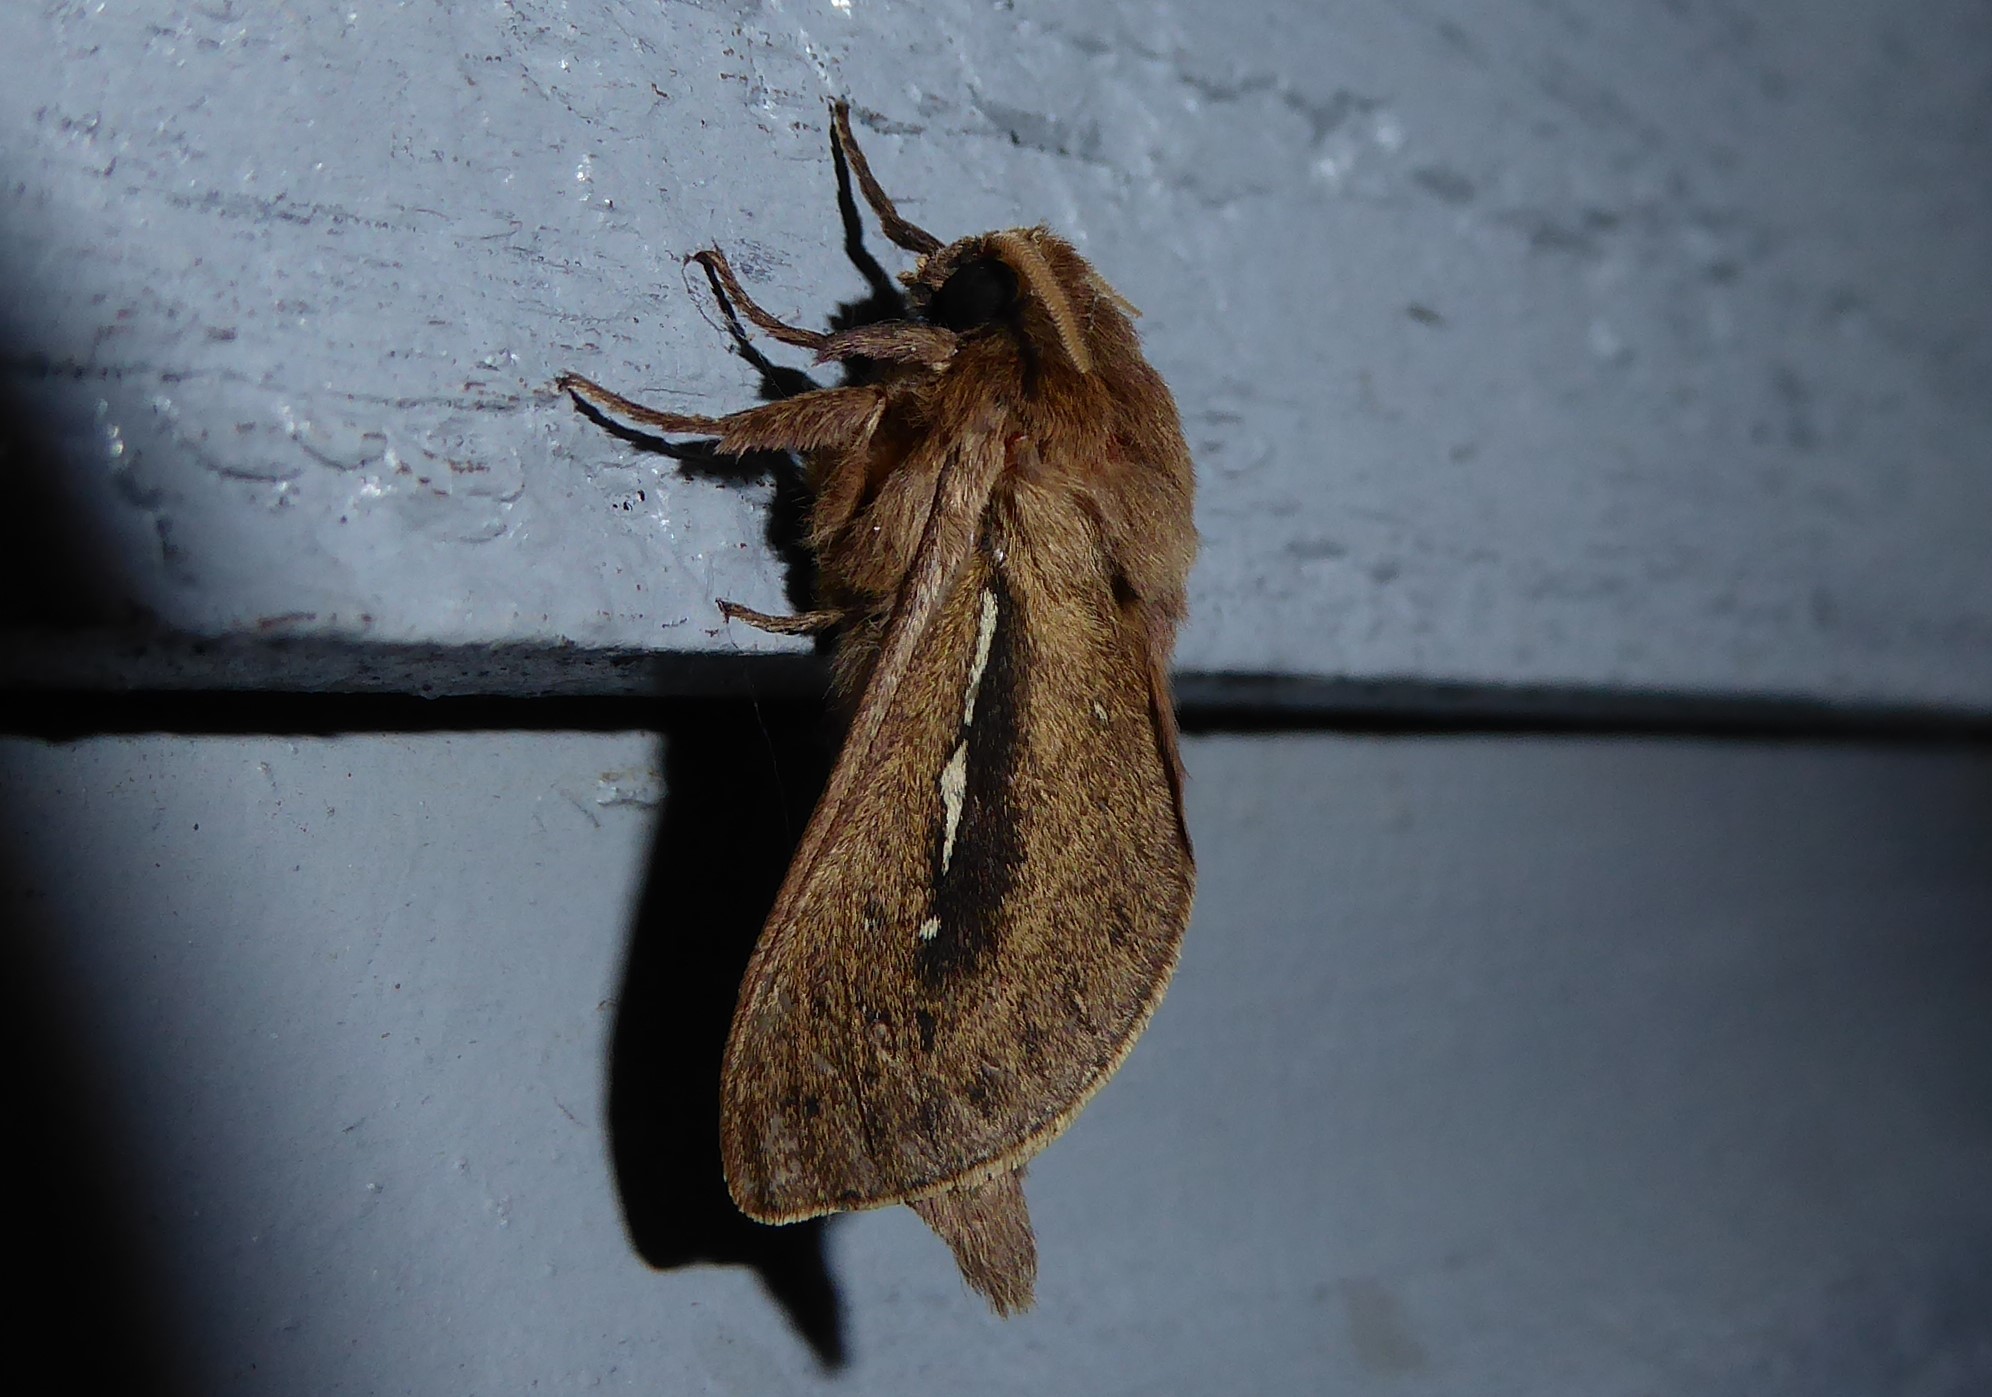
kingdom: Animalia
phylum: Arthropoda
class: Insecta
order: Lepidoptera
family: Hepialidae
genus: Wiseana
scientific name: Wiseana umbraculatus
